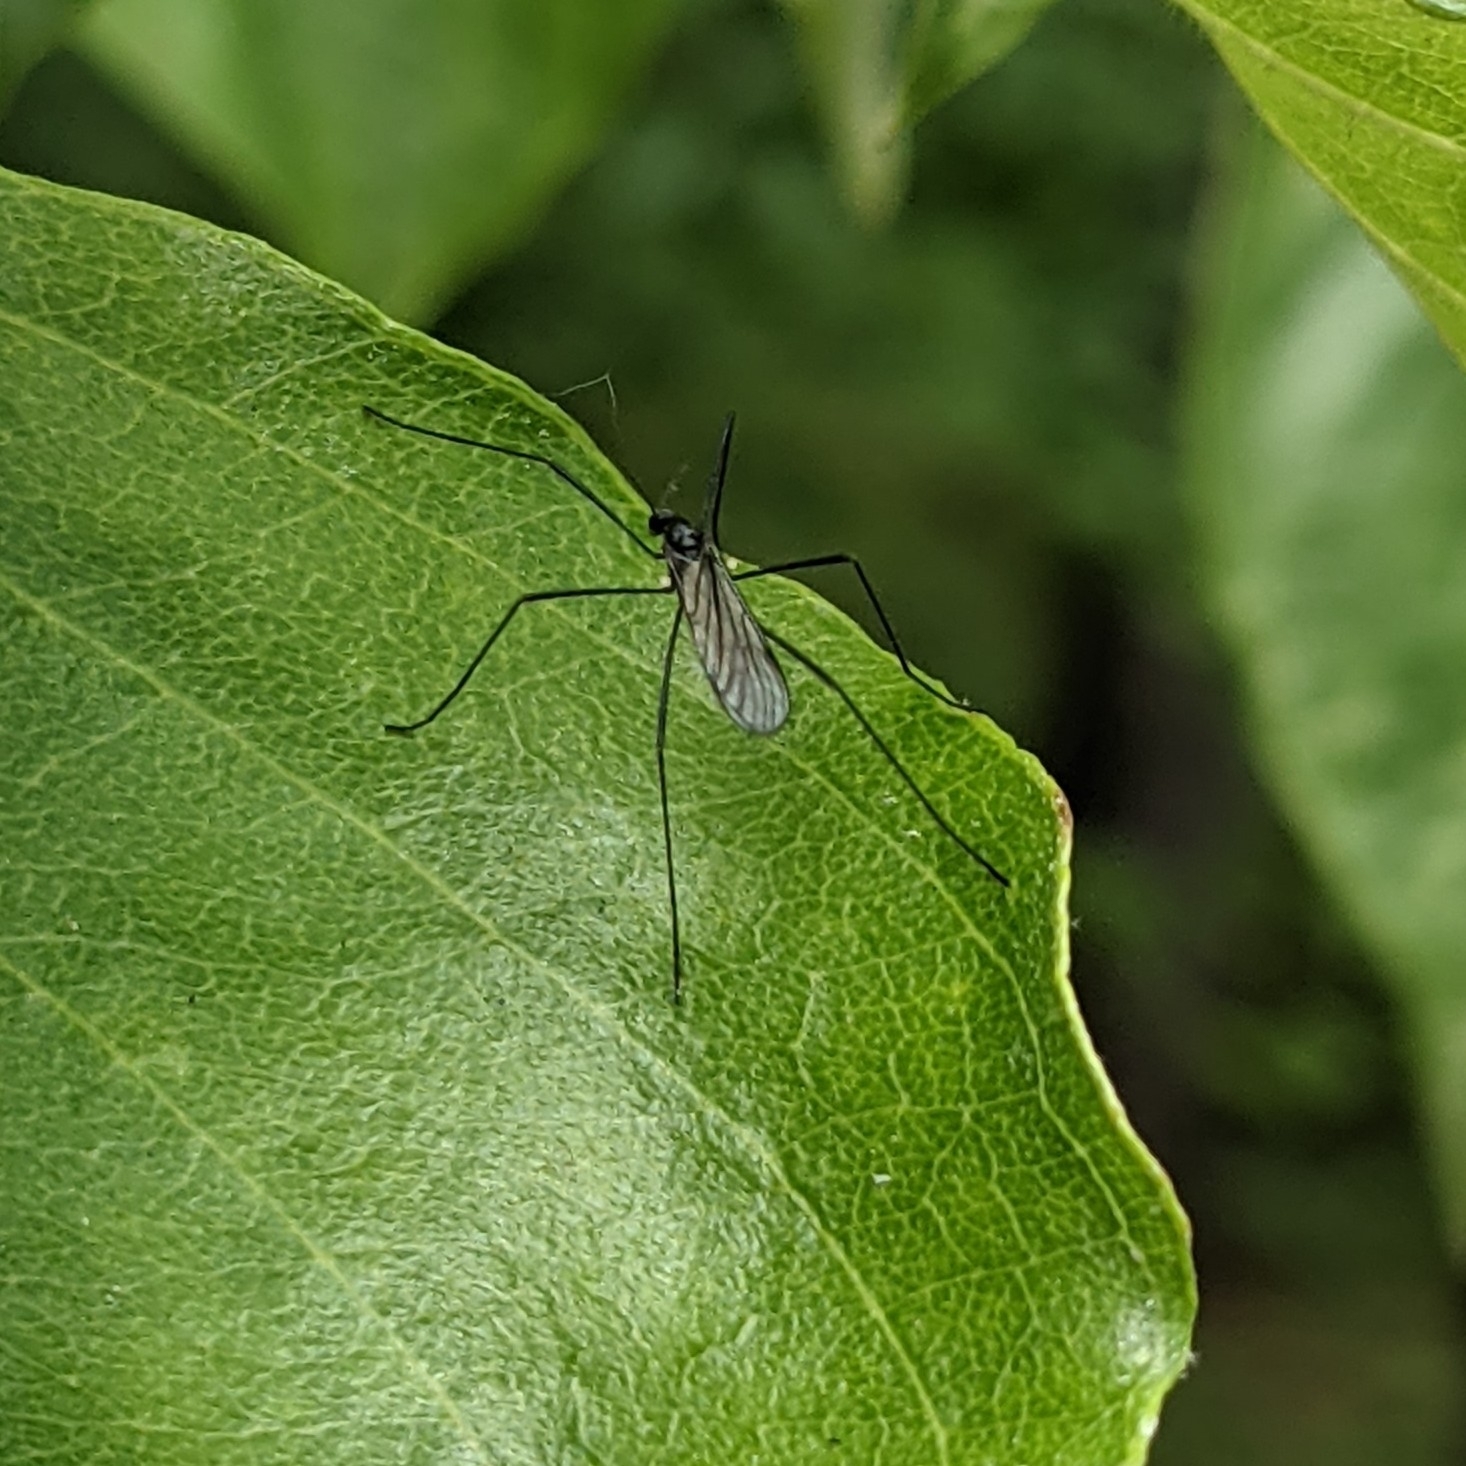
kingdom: Animalia
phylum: Arthropoda
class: Insecta
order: Diptera
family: Limoniidae
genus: Gnophomyia
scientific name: Gnophomyia tristissima
